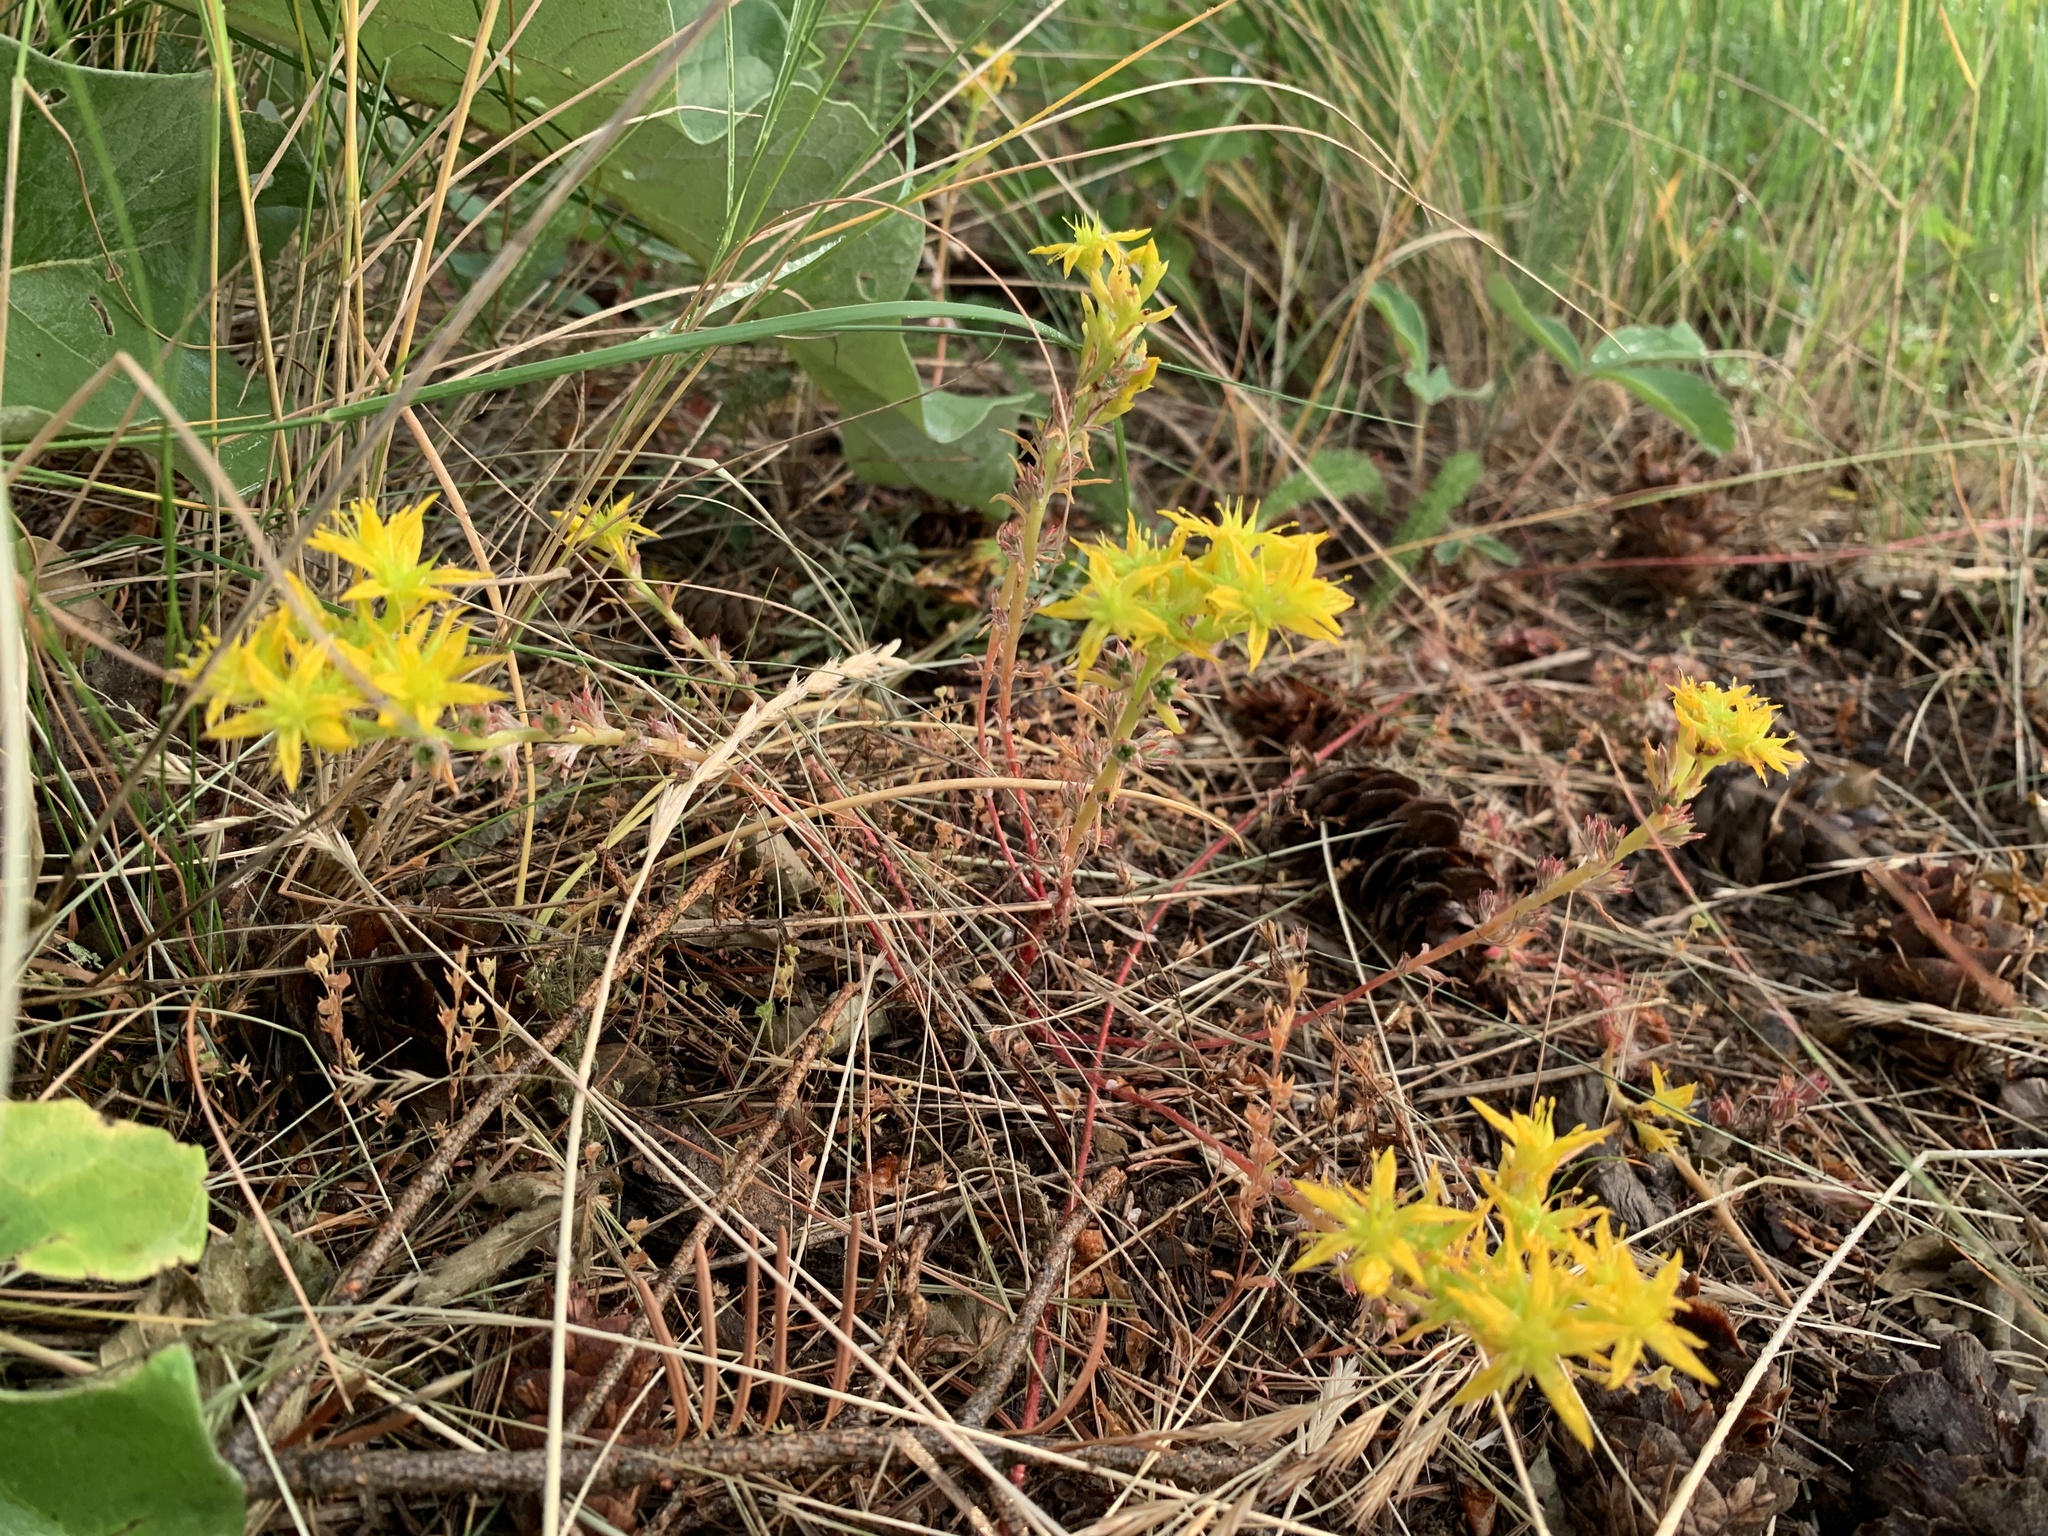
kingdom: Plantae
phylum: Tracheophyta
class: Magnoliopsida
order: Saxifragales
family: Crassulaceae
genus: Sedum
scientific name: Sedum stenopetalum
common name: Narrow-petaled stonecrop
